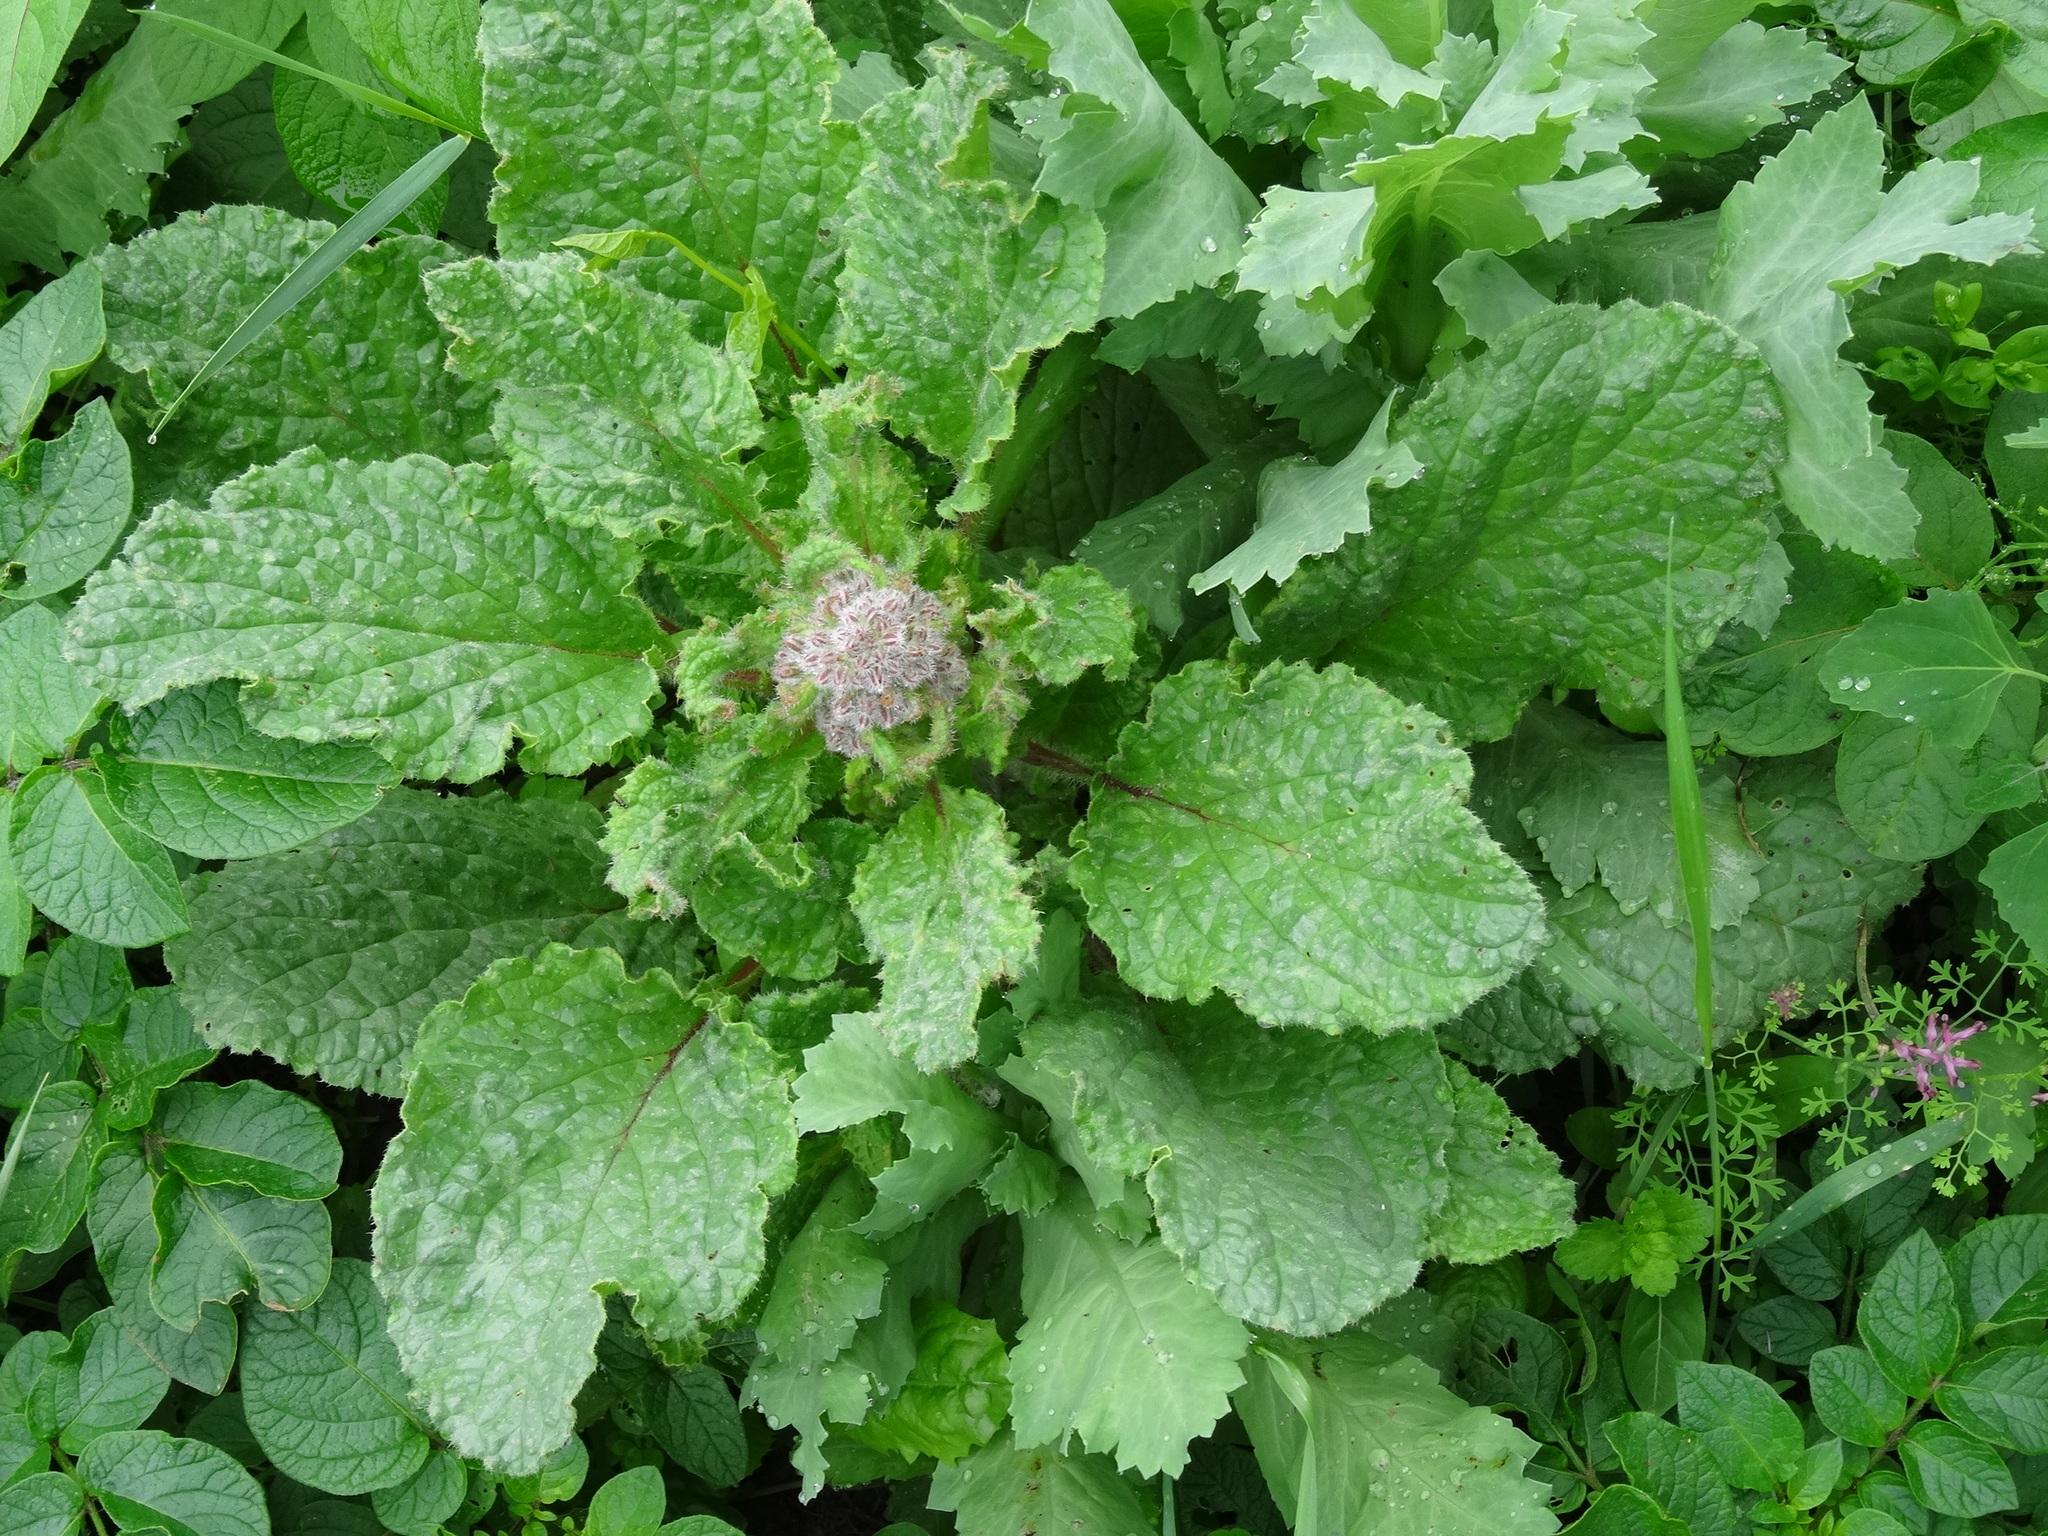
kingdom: Plantae
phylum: Tracheophyta
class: Magnoliopsida
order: Boraginales
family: Boraginaceae
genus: Borago
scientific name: Borago officinalis
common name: Borage
